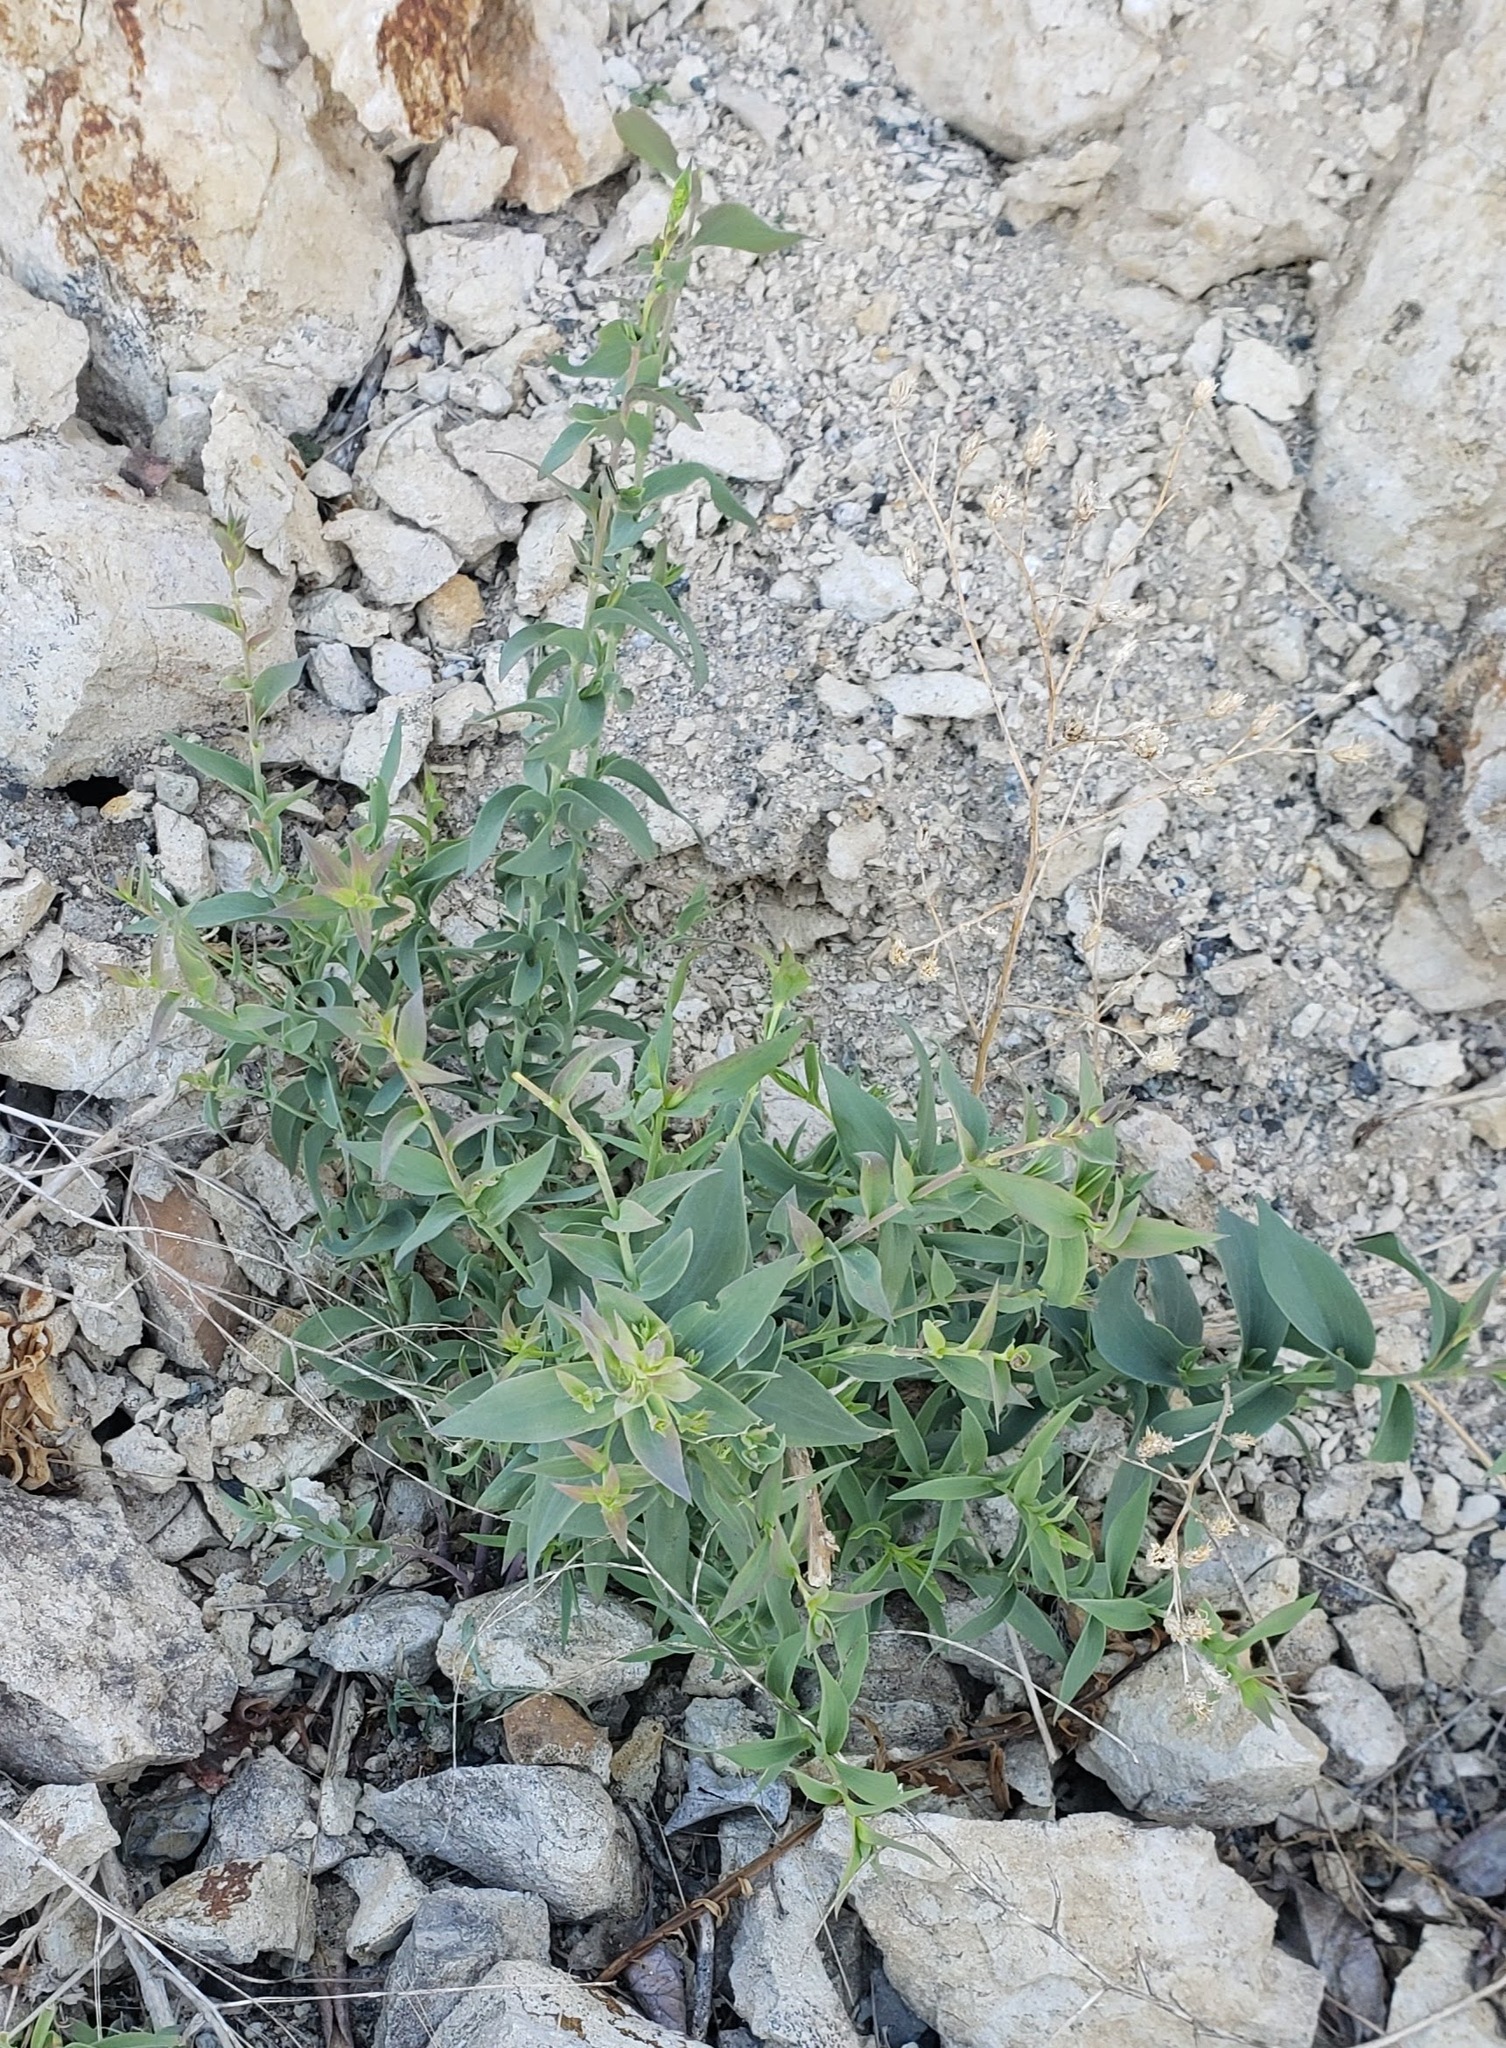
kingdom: Plantae
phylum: Tracheophyta
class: Magnoliopsida
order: Lamiales
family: Plantaginaceae
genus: Linaria
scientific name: Linaria dalmatica
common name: Dalmatian toadflax
